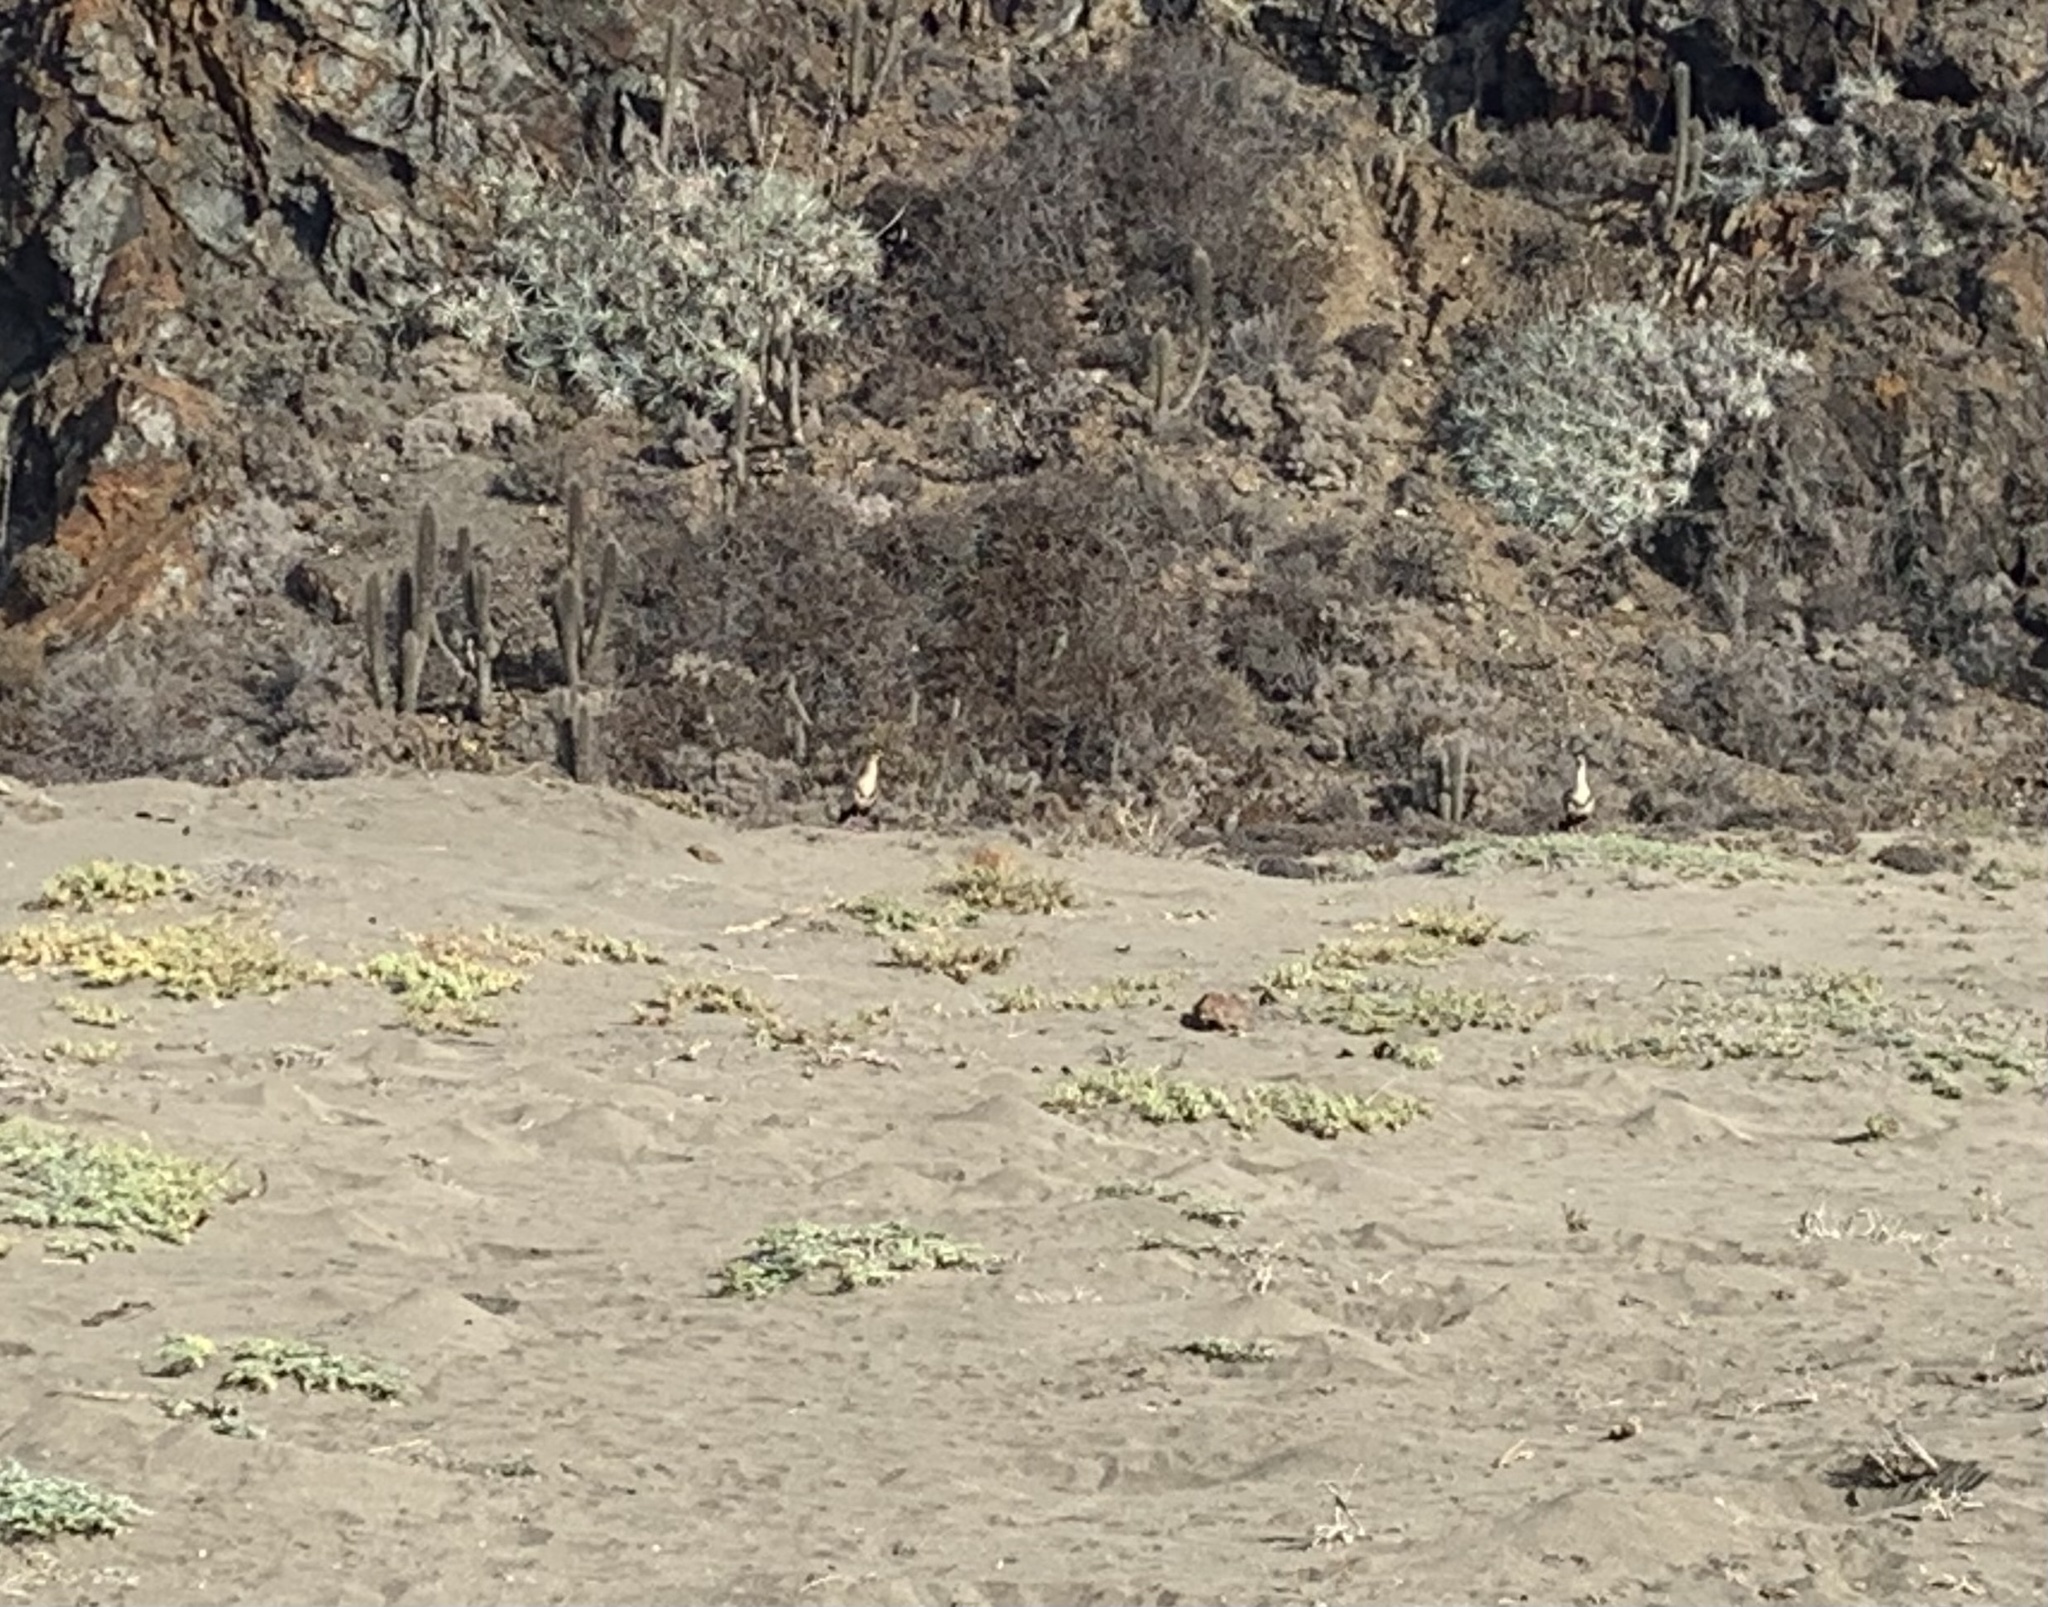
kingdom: Animalia
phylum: Chordata
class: Aves
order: Pelecaniformes
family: Threskiornithidae
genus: Theristicus
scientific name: Theristicus melanopis
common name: Black-faced ibis
